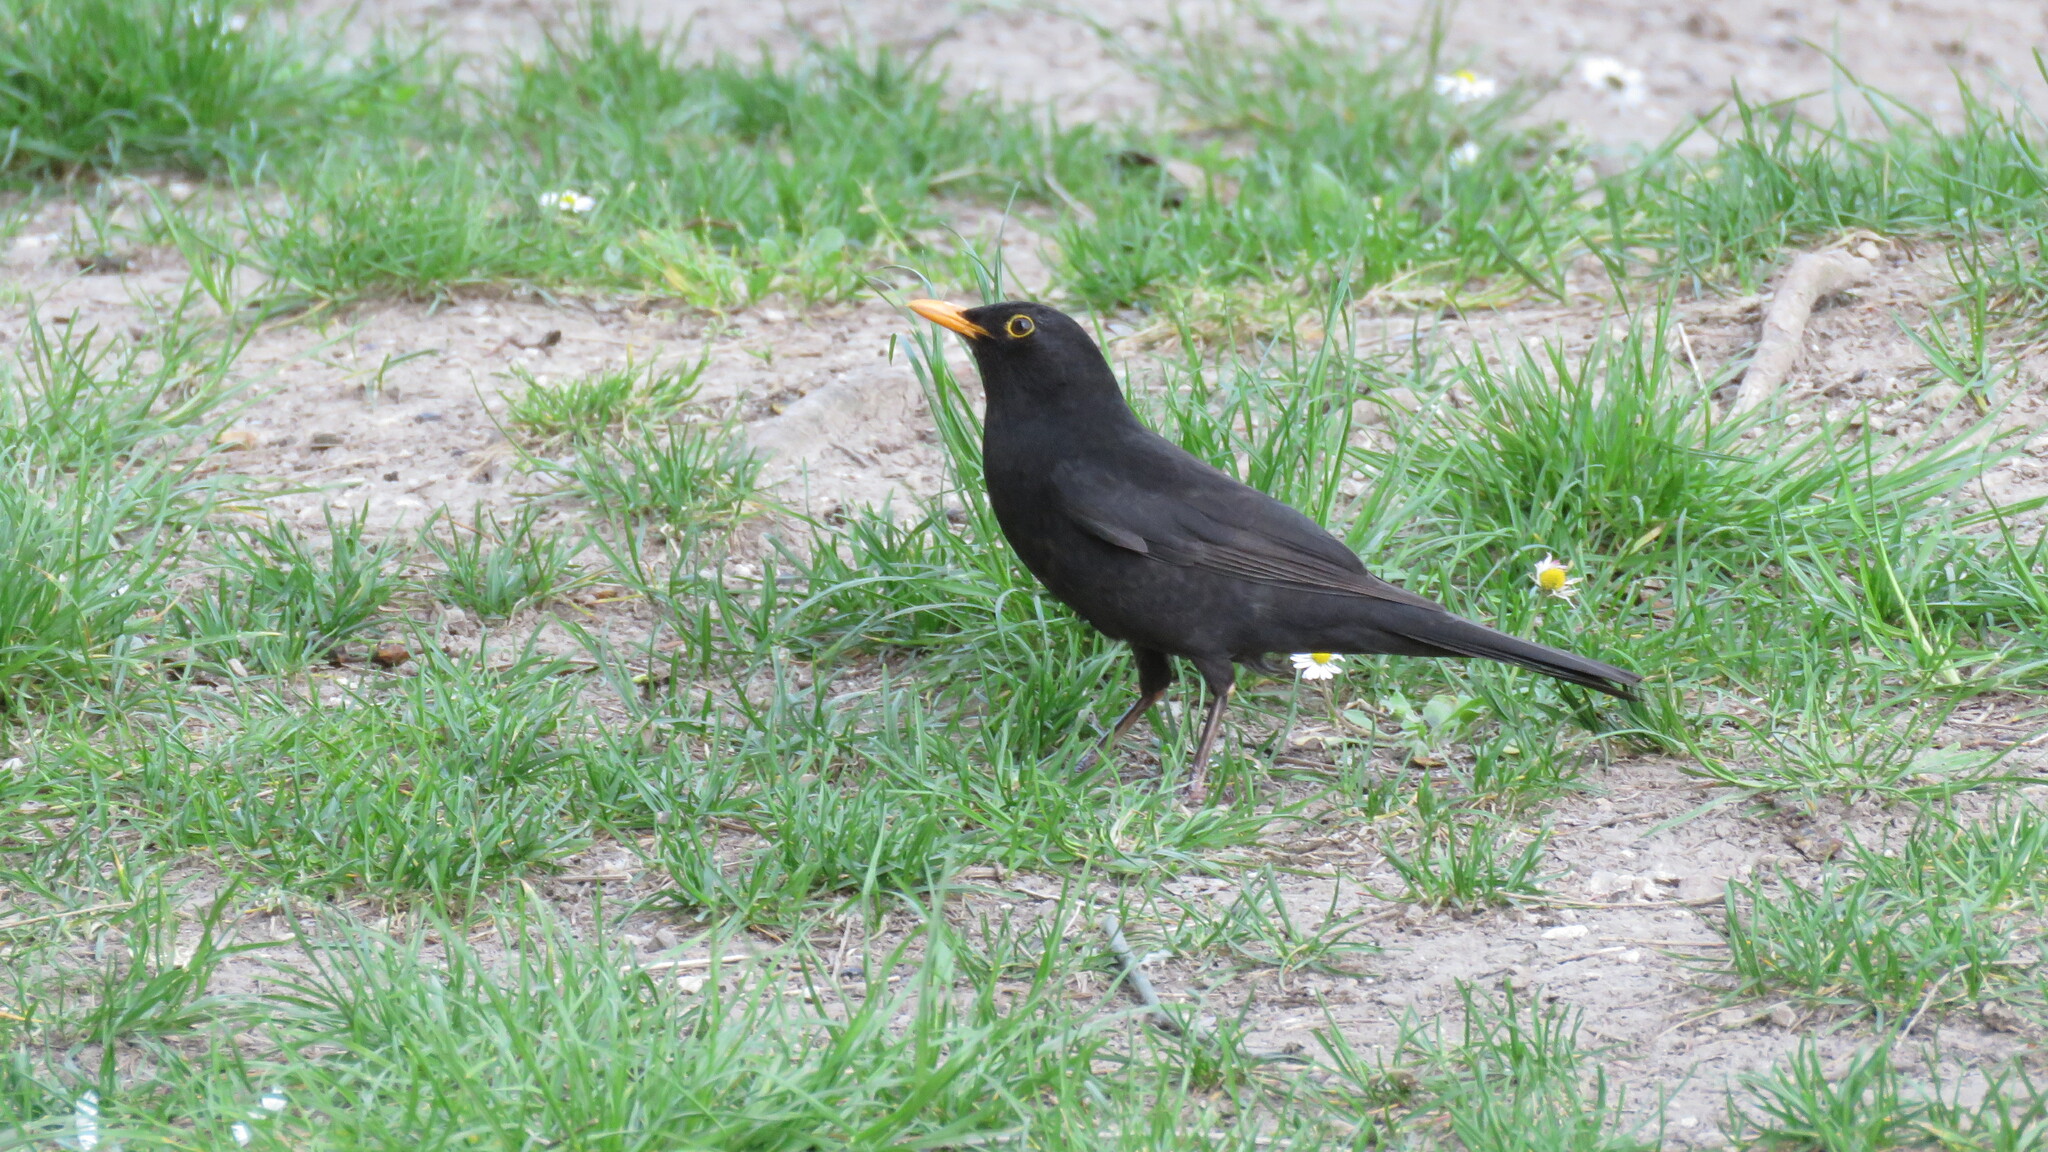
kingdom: Animalia
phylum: Chordata
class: Aves
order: Passeriformes
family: Turdidae
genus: Turdus
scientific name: Turdus merula
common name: Common blackbird
